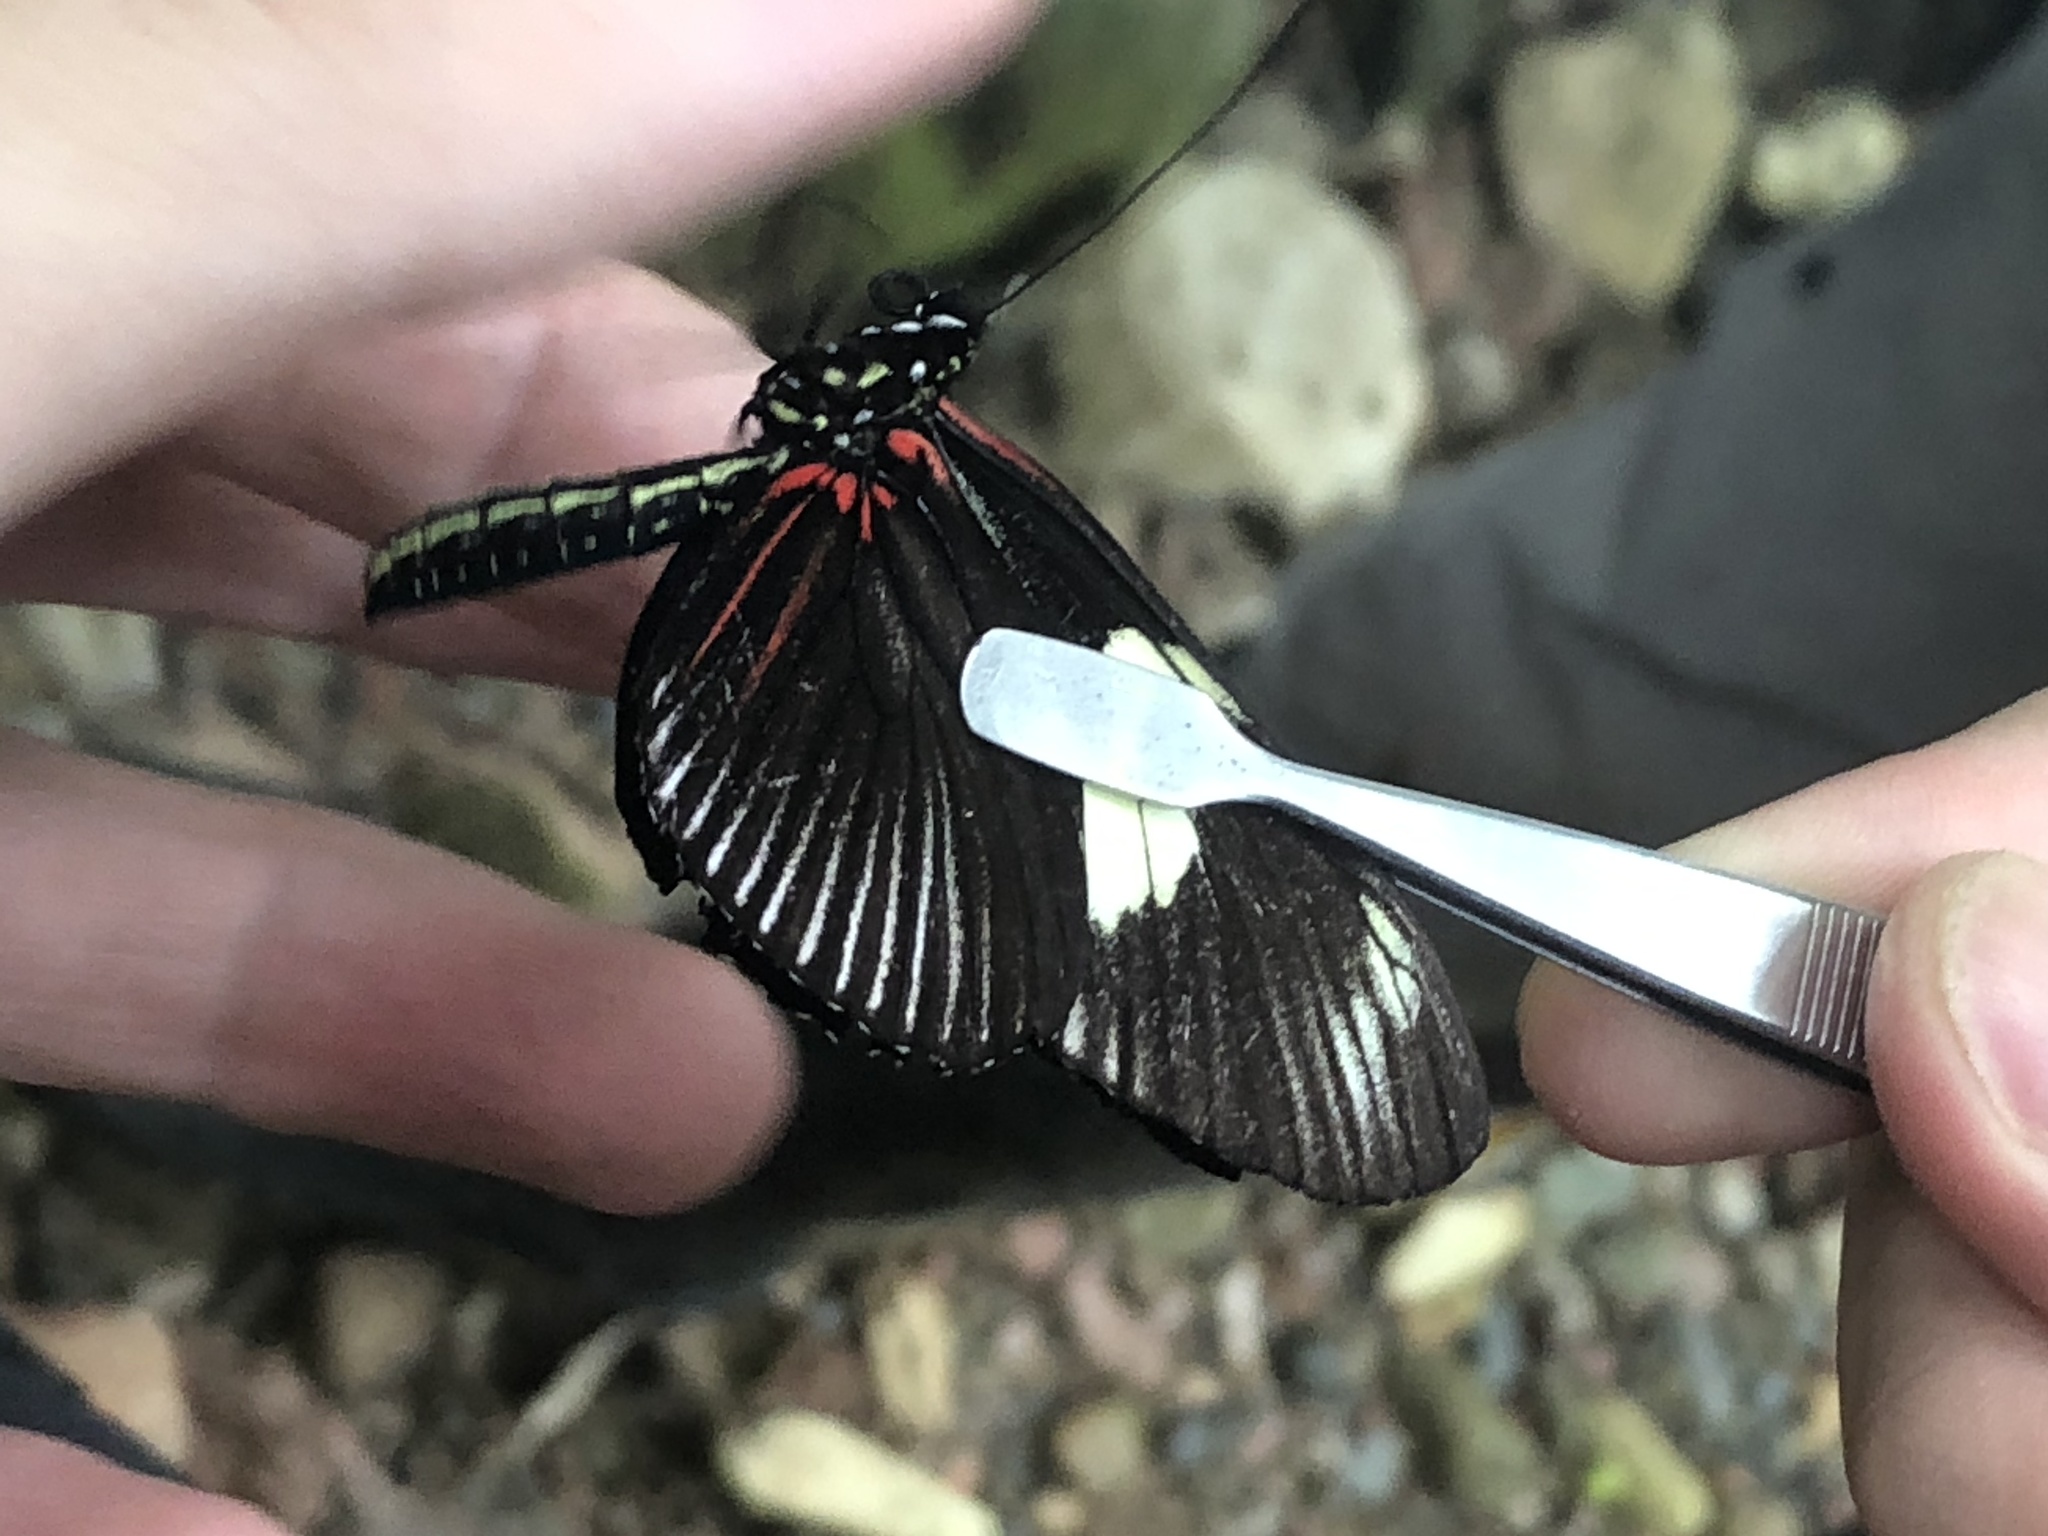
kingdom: Animalia
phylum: Arthropoda
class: Insecta
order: Lepidoptera
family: Nymphalidae
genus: Heliconius
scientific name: Heliconius doris
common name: Doris longwing
